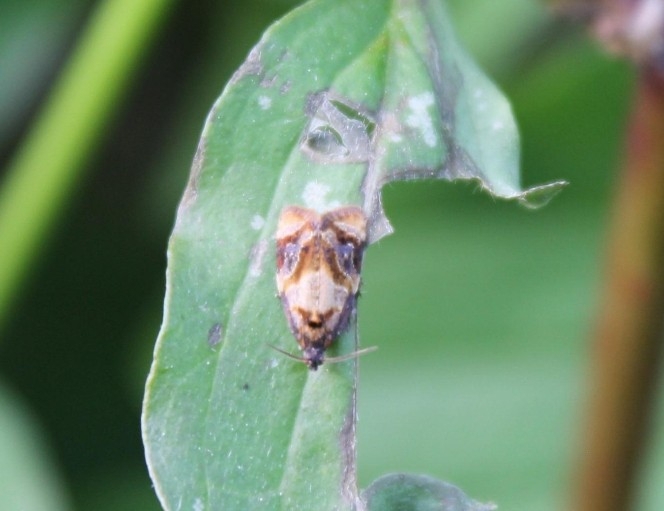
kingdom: Animalia
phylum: Arthropoda
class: Insecta
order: Lepidoptera
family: Tortricidae
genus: Ditula
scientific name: Ditula angustiorana
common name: Red-barred tortrix
